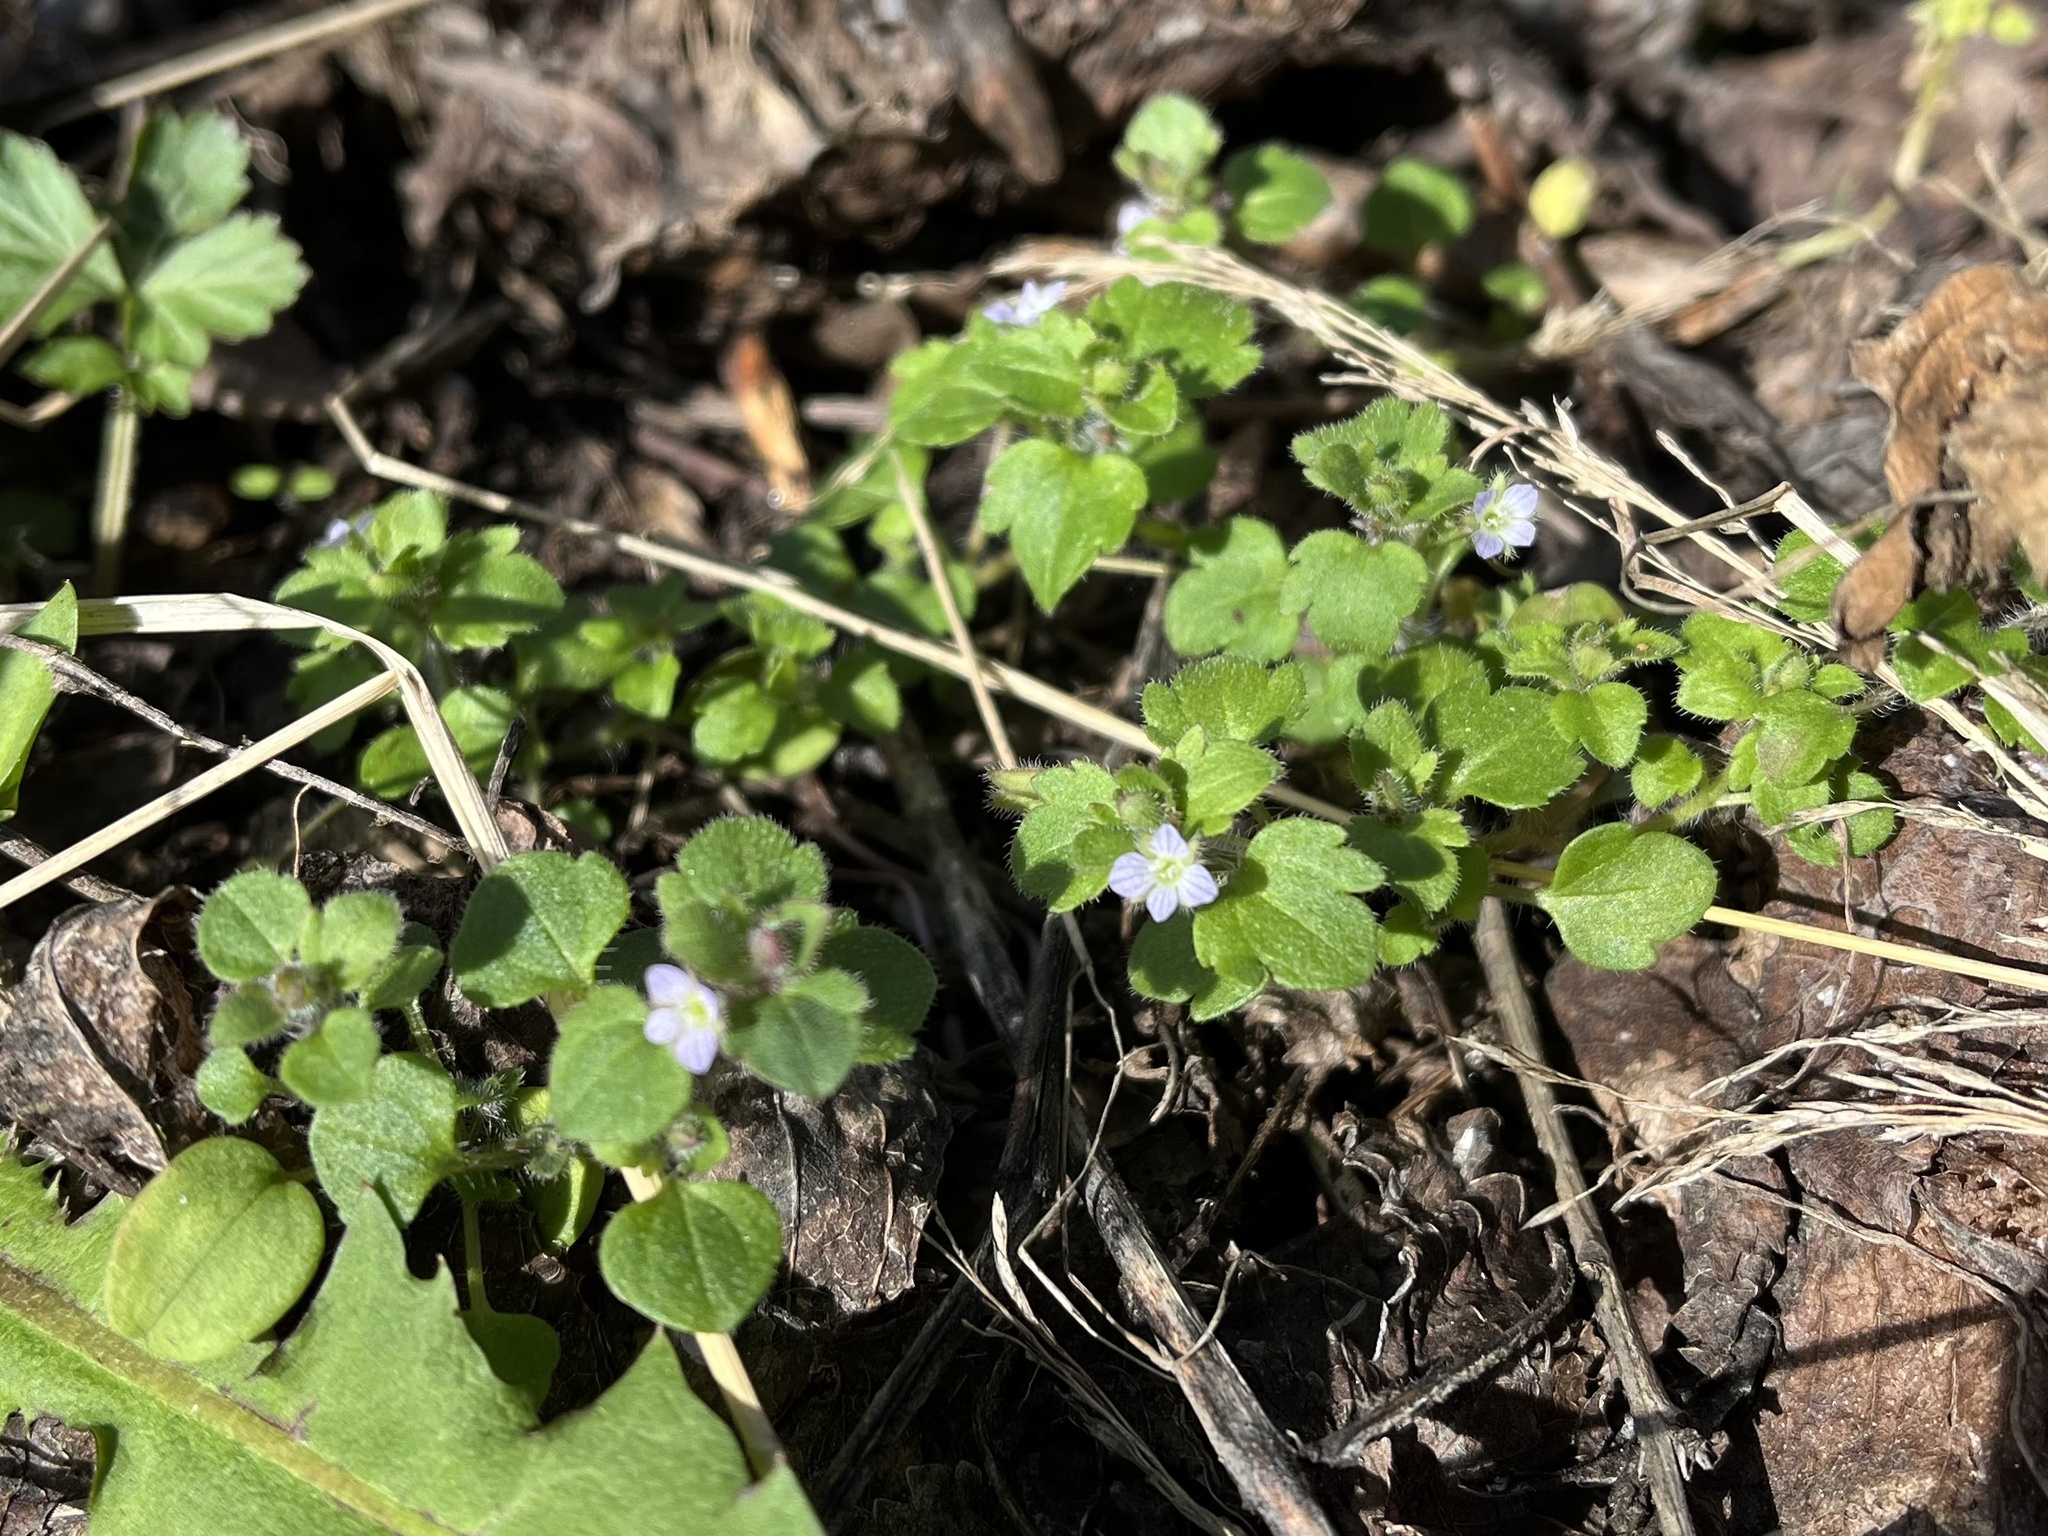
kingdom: Plantae
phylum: Tracheophyta
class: Magnoliopsida
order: Lamiales
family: Plantaginaceae
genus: Veronica
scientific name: Veronica sublobata
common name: False ivy-leaved speedwell
